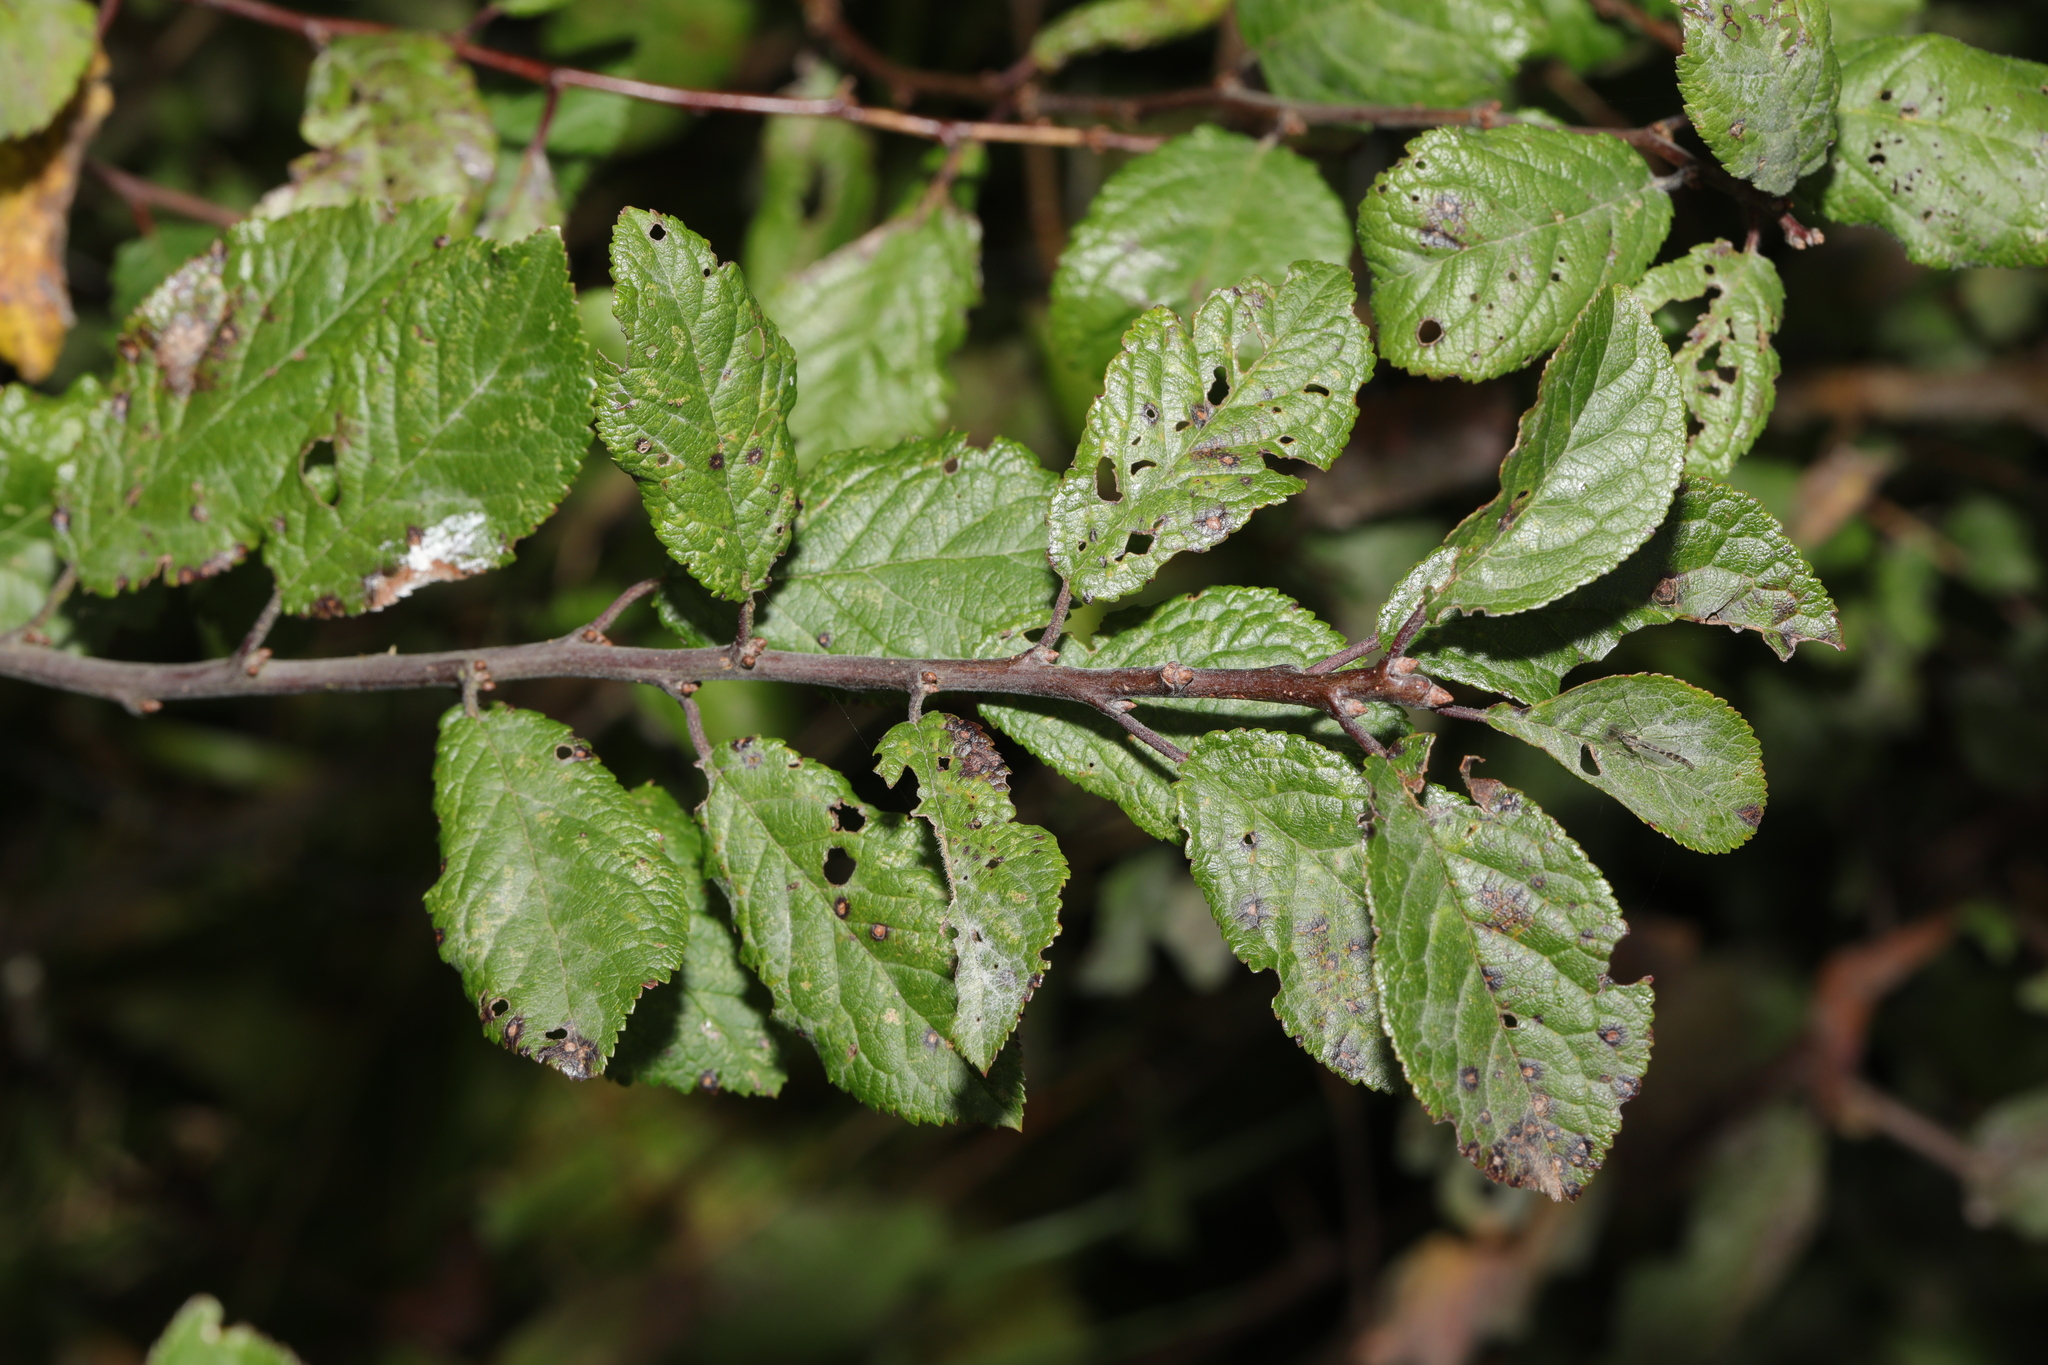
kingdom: Plantae
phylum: Tracheophyta
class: Magnoliopsida
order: Rosales
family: Rosaceae
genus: Prunus
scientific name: Prunus spinosa
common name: Blackthorn
